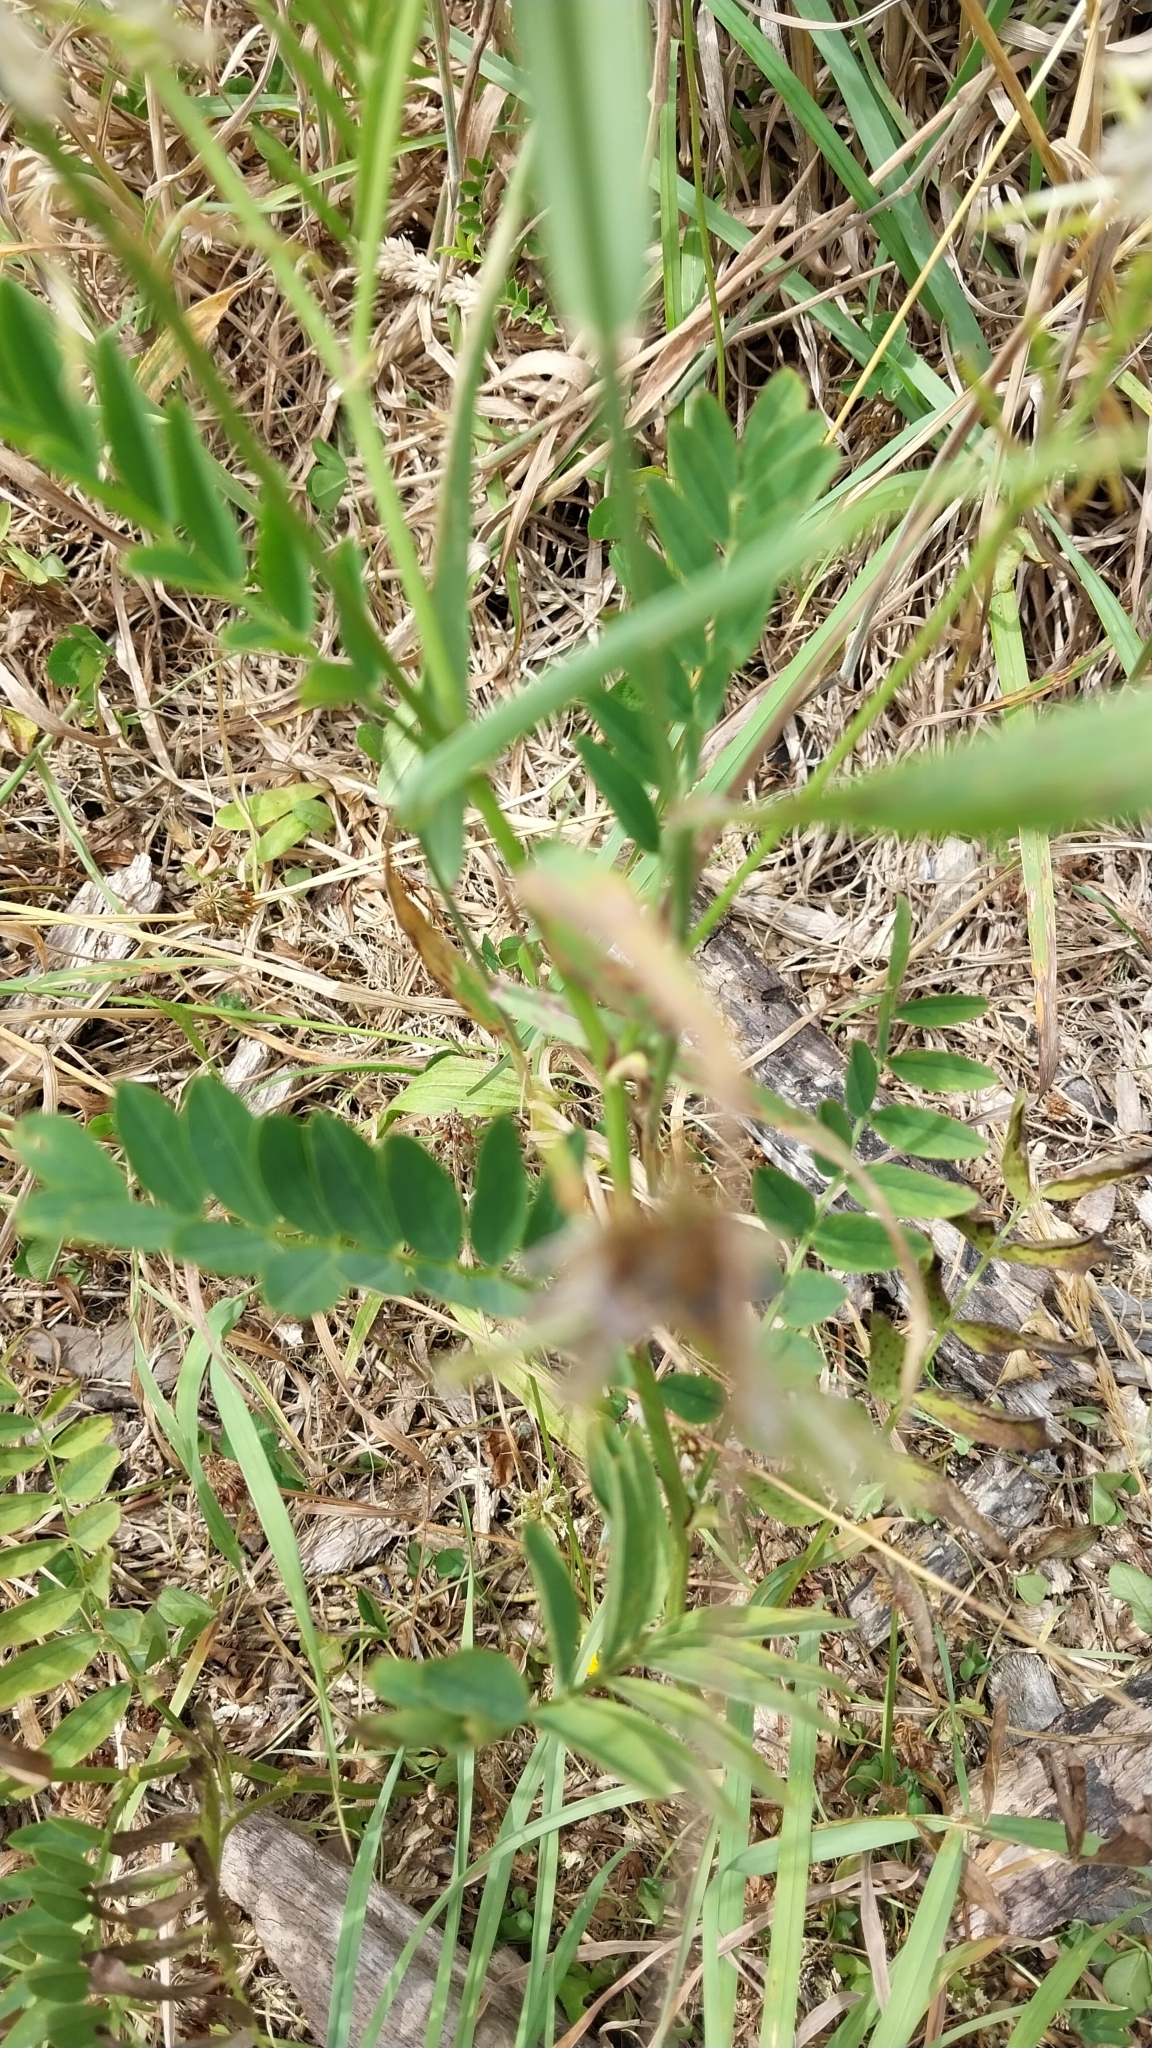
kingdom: Plantae
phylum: Tracheophyta
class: Magnoliopsida
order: Fabales
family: Fabaceae
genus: Galega
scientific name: Galega officinalis
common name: Goat's-rue
